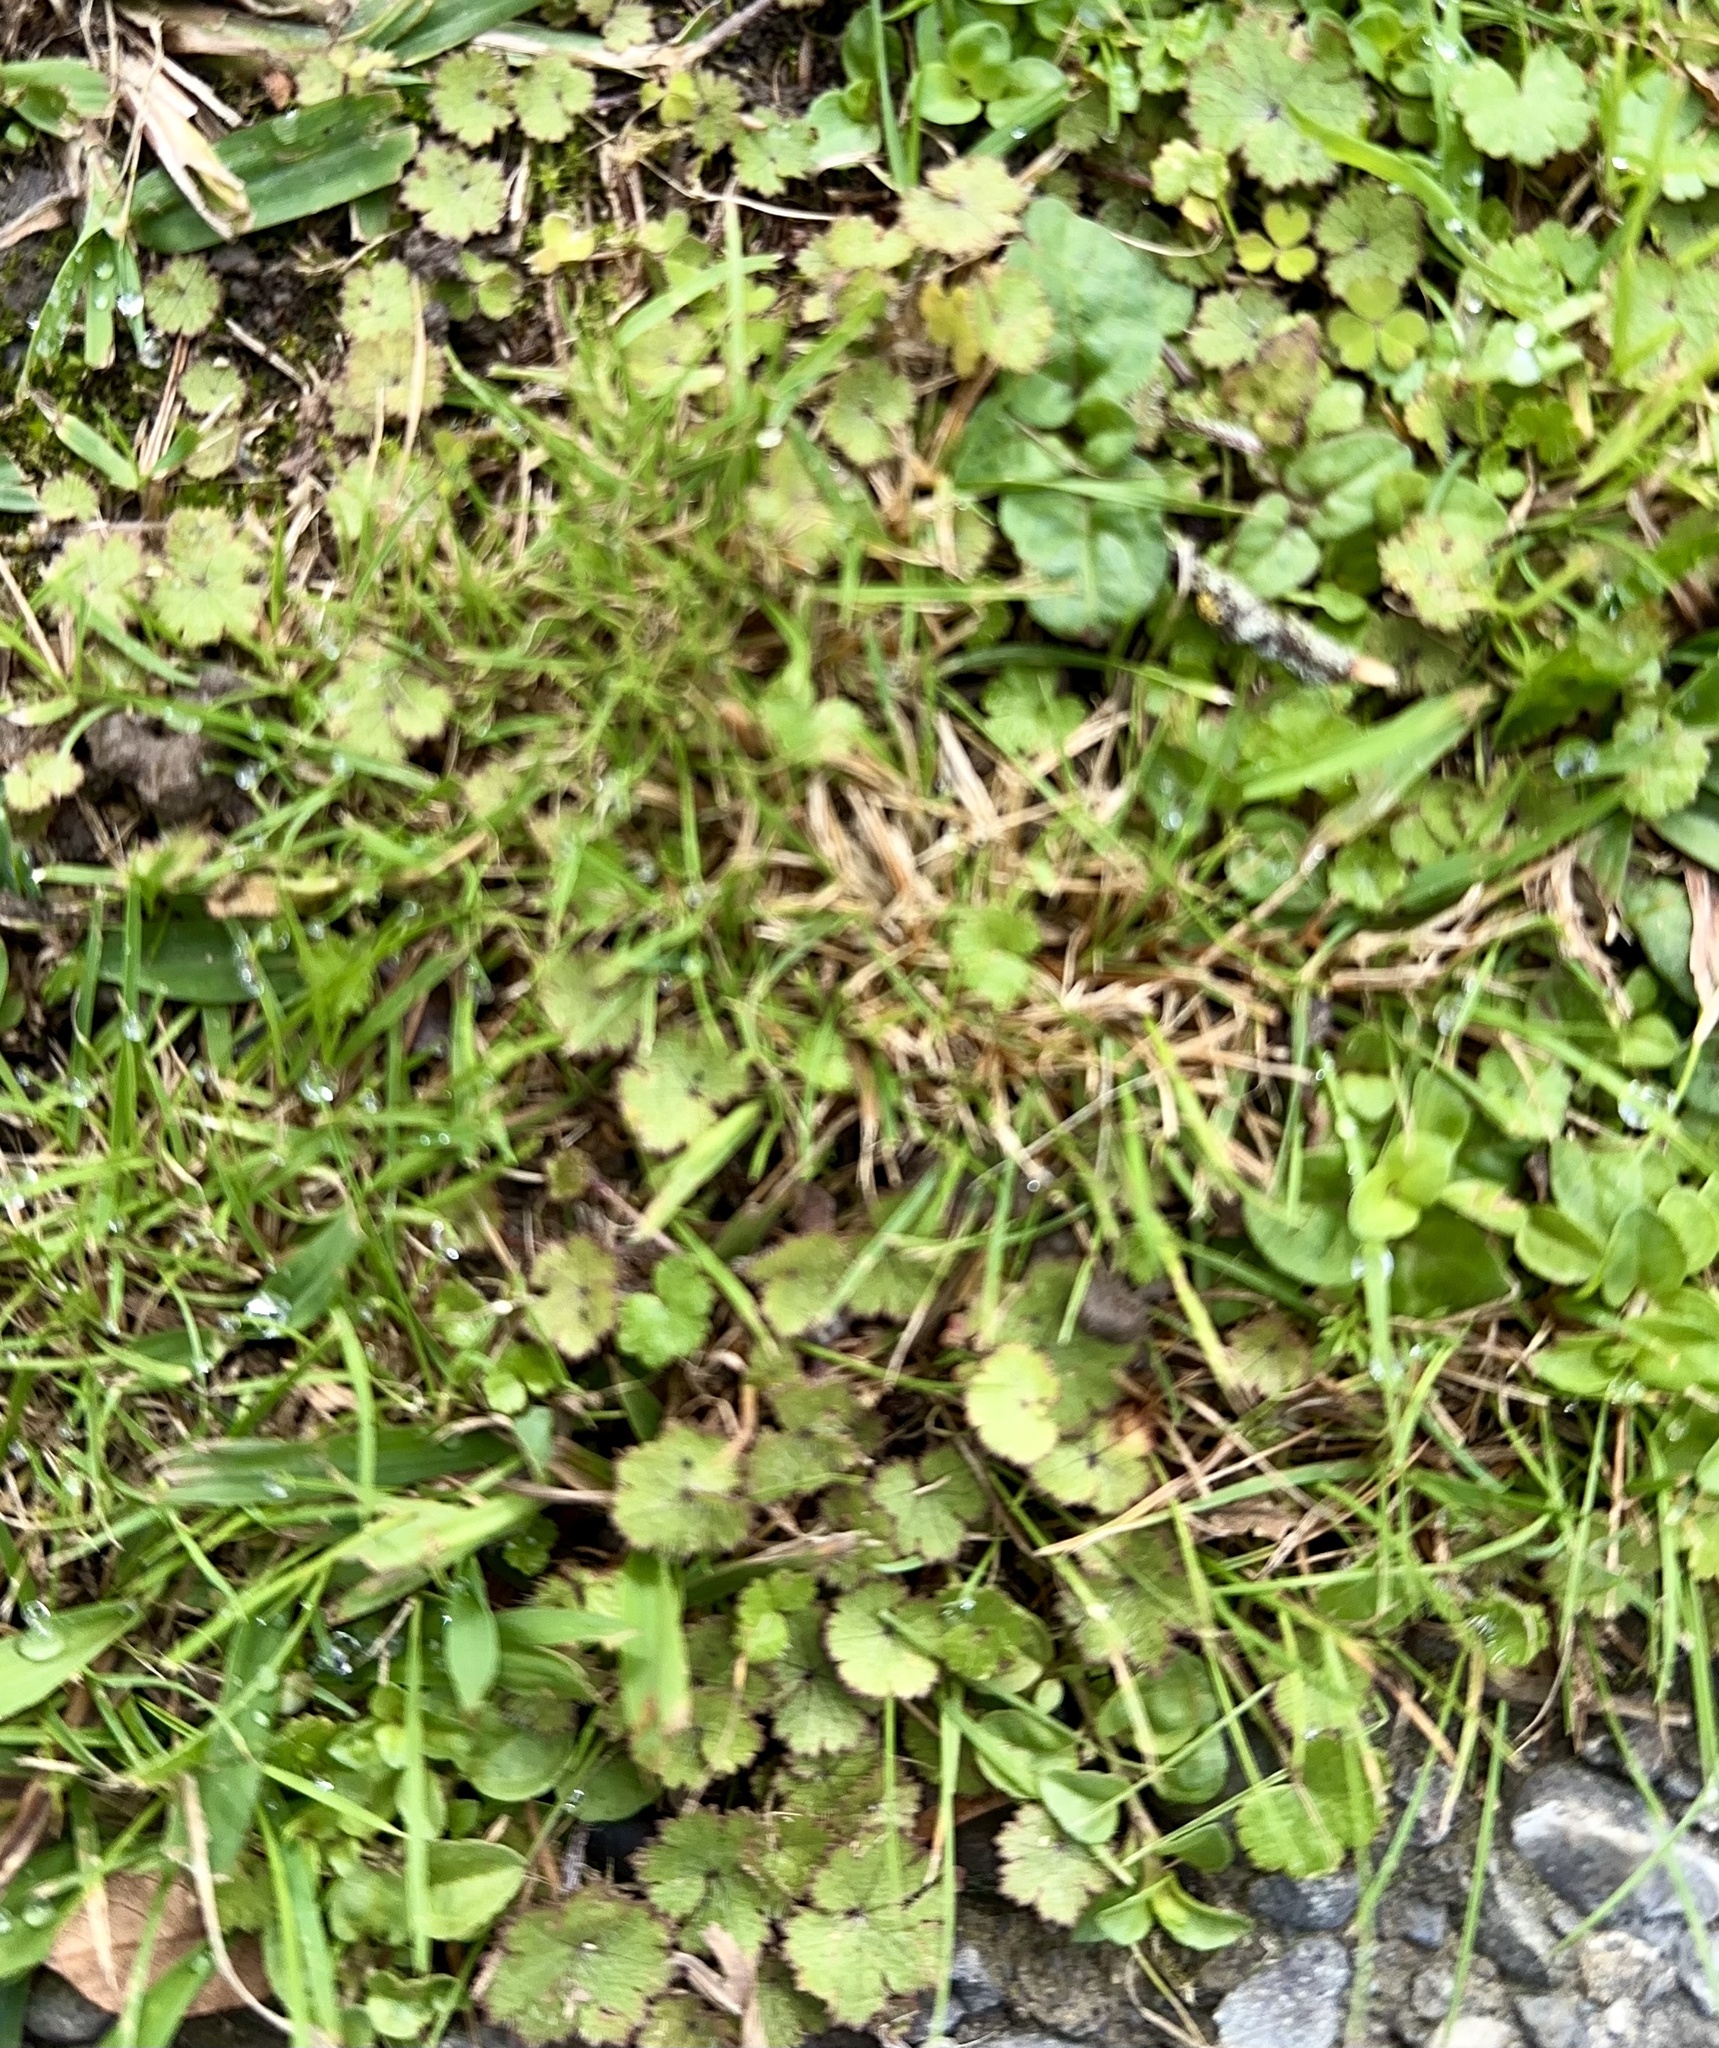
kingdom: Plantae
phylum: Tracheophyta
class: Magnoliopsida
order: Apiales
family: Araliaceae
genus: Hydrocotyle
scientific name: Hydrocotyle moschata
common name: Hairy pennywort
